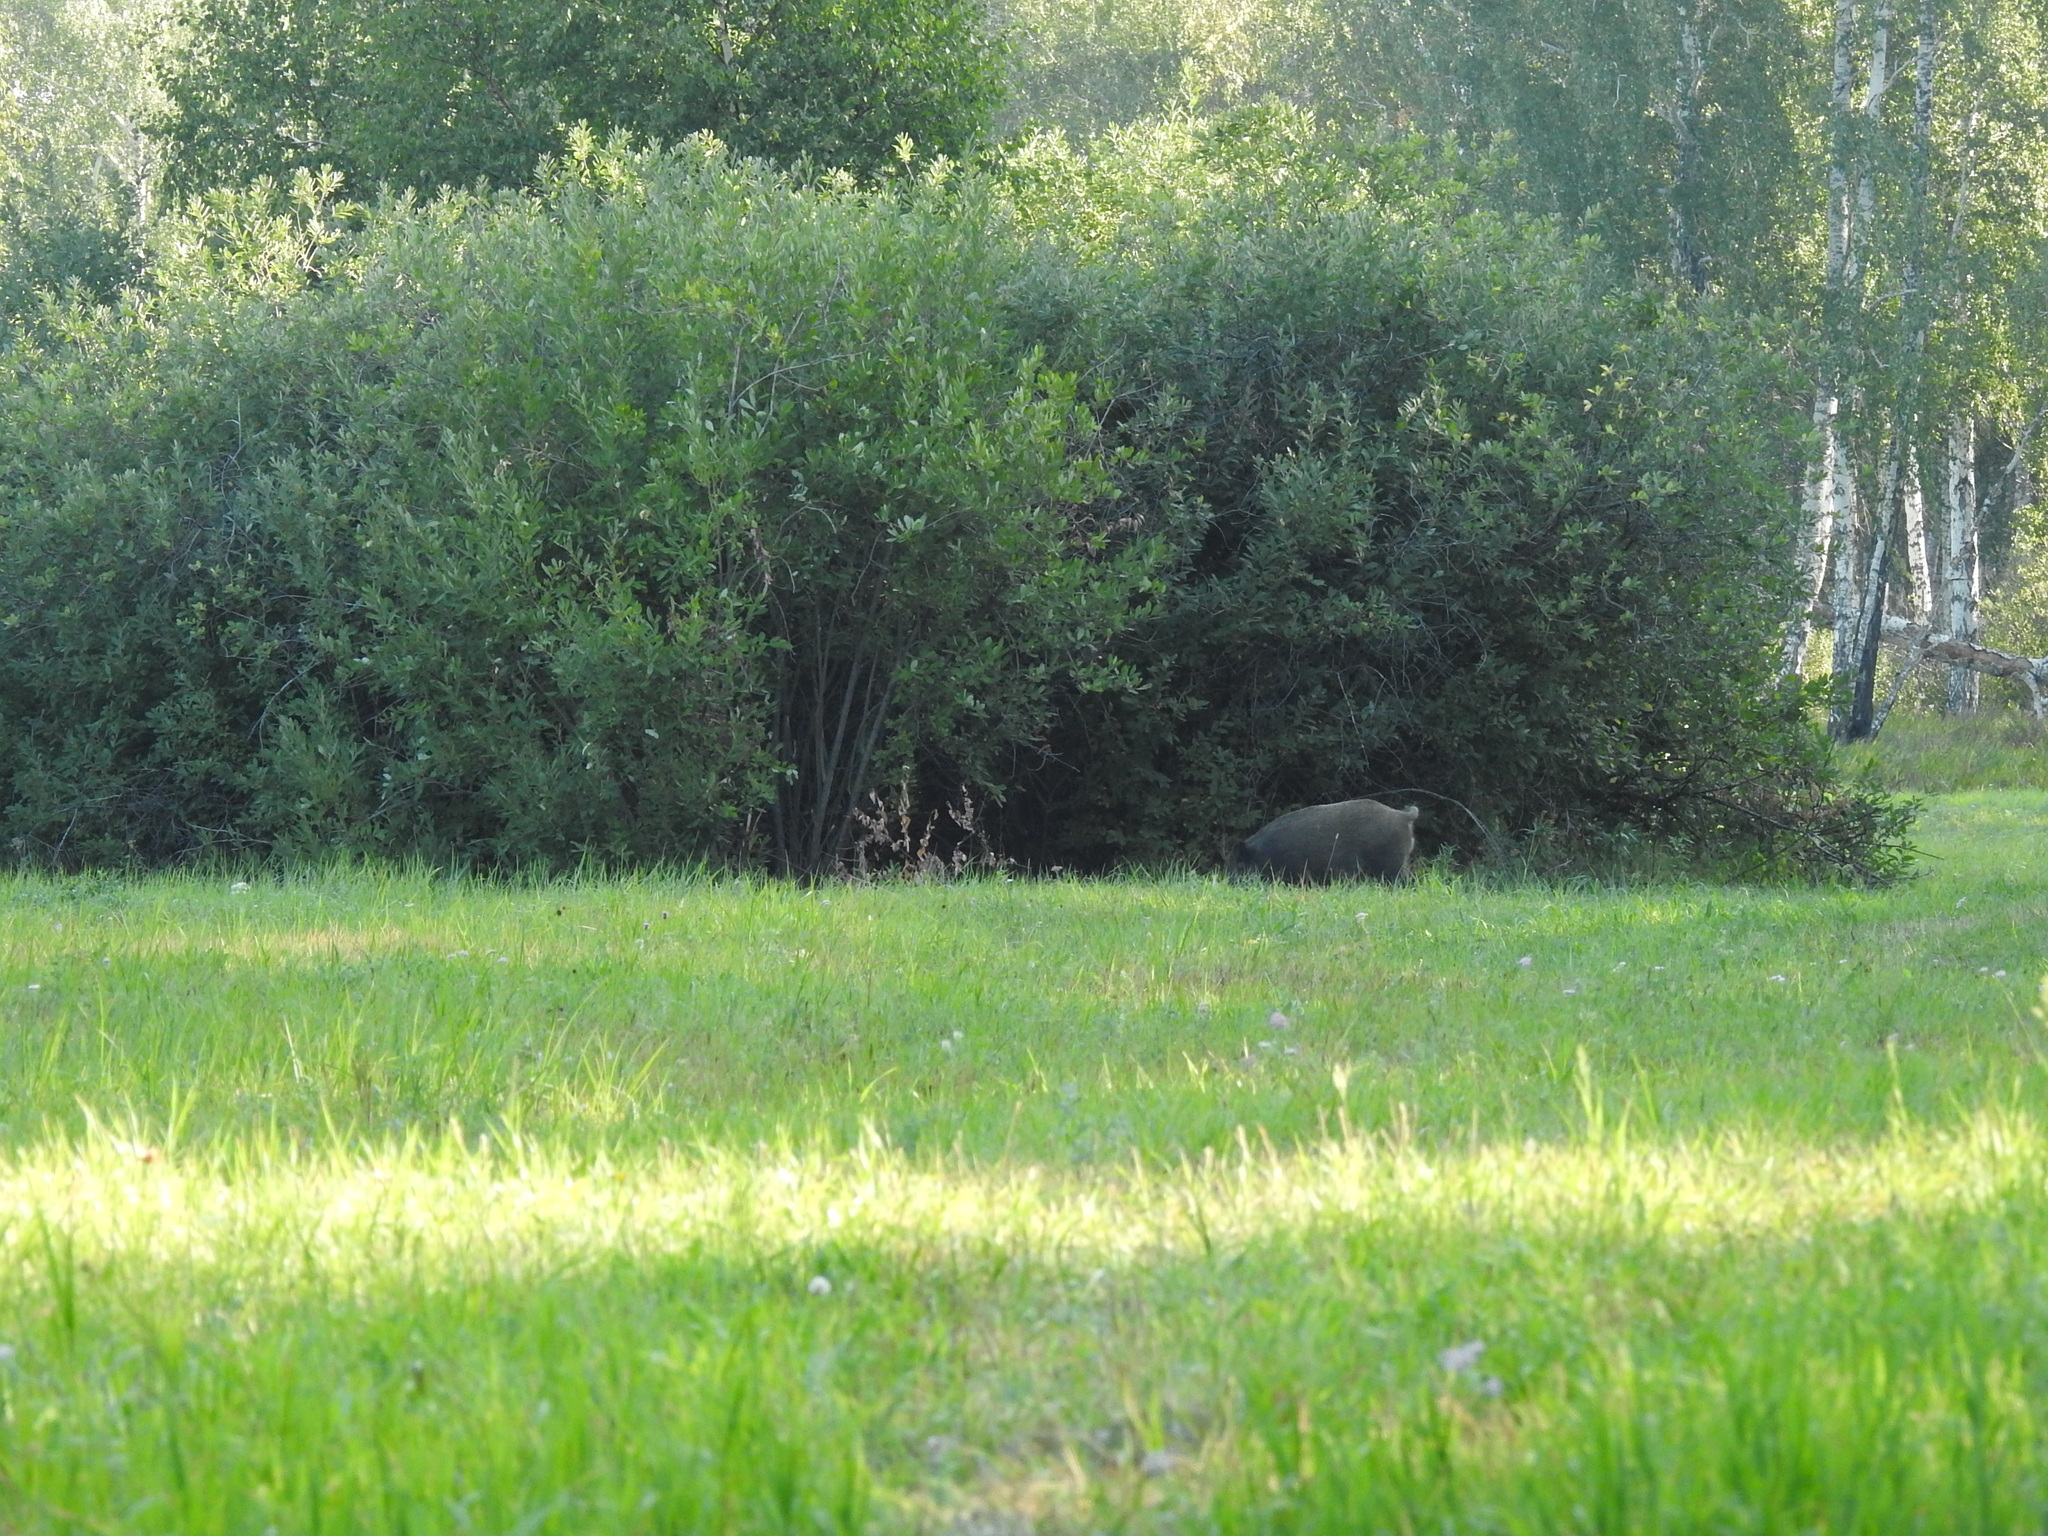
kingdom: Animalia
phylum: Chordata
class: Mammalia
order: Artiodactyla
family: Suidae
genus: Sus
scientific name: Sus scrofa
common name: Wild boar
